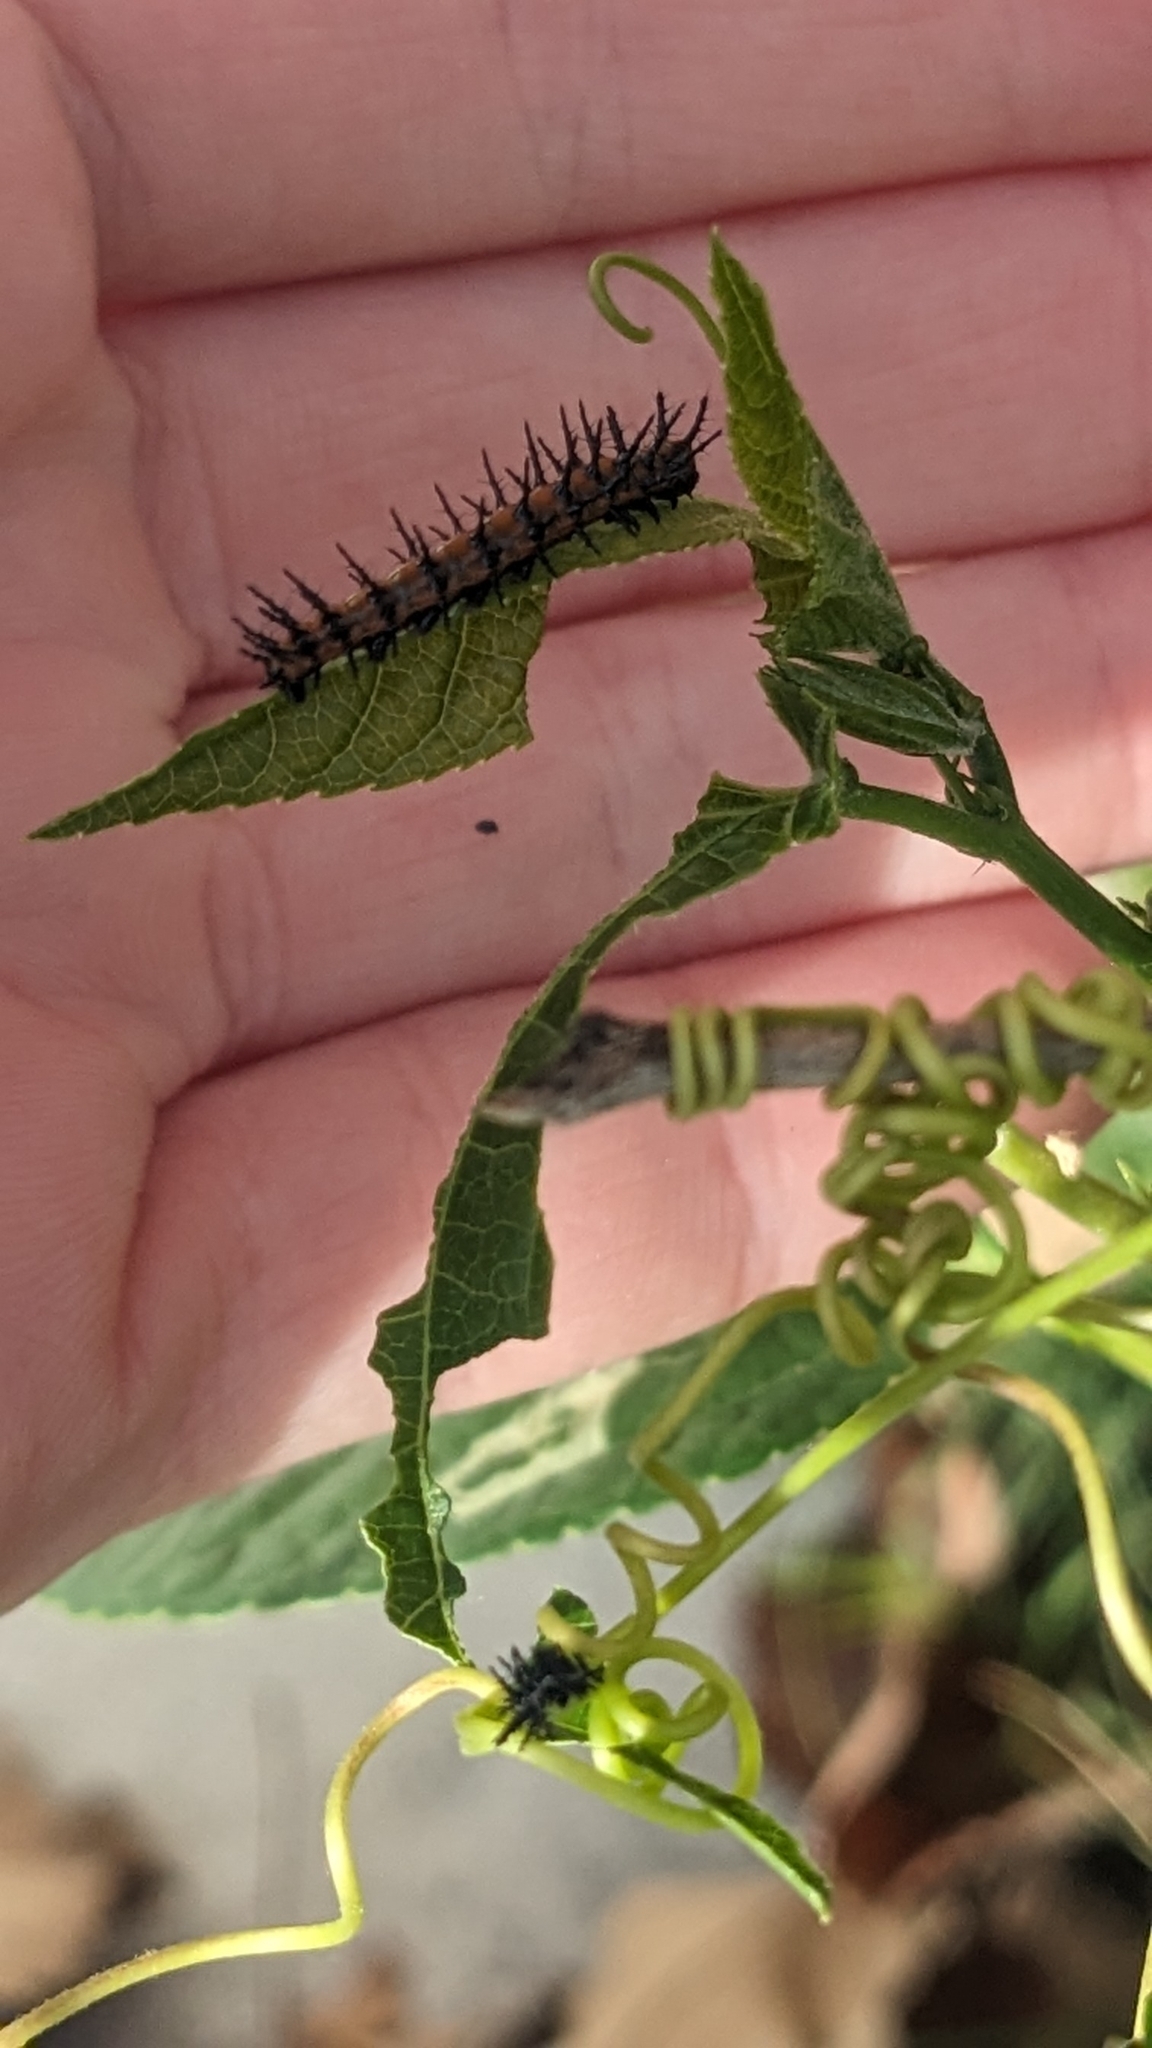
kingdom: Animalia
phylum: Arthropoda
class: Insecta
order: Lepidoptera
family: Nymphalidae
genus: Dione
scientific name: Dione vanillae
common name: Gulf fritillary
